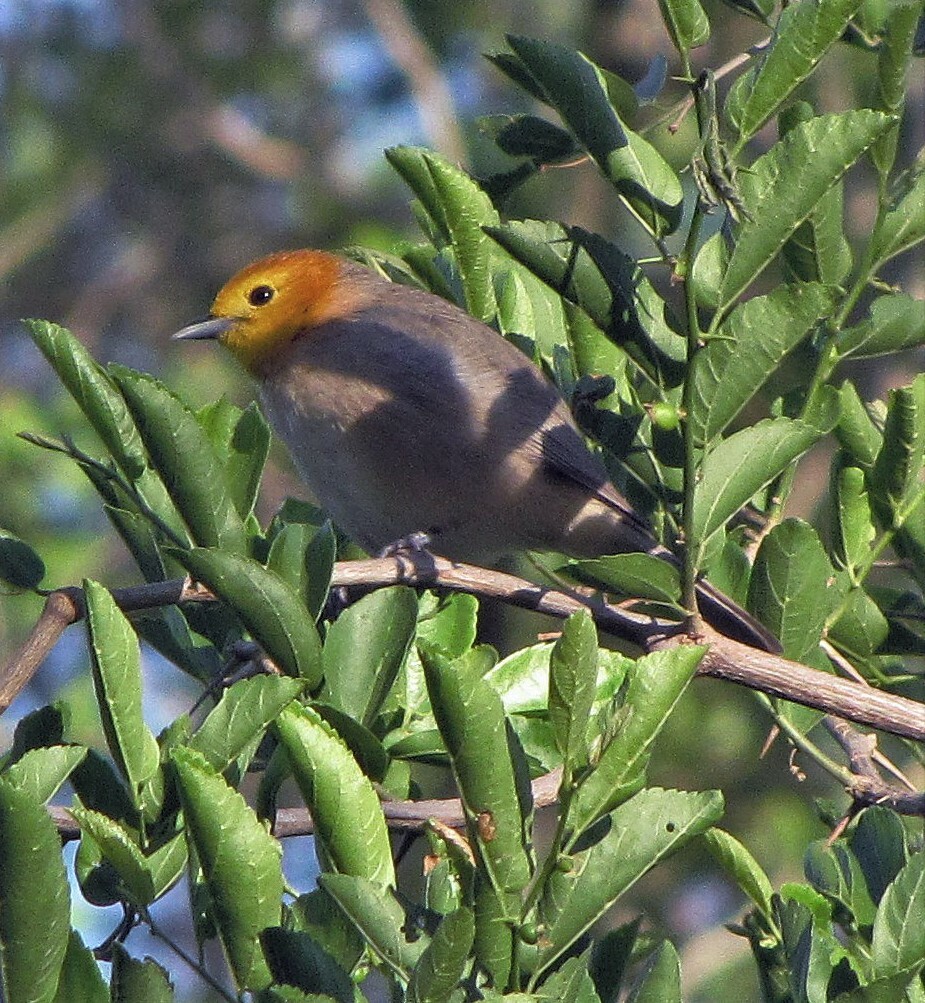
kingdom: Animalia
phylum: Chordata
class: Aves
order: Passeriformes
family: Thraupidae
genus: Thlypopsis
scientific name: Thlypopsis sordida
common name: Orange-headed tanager
